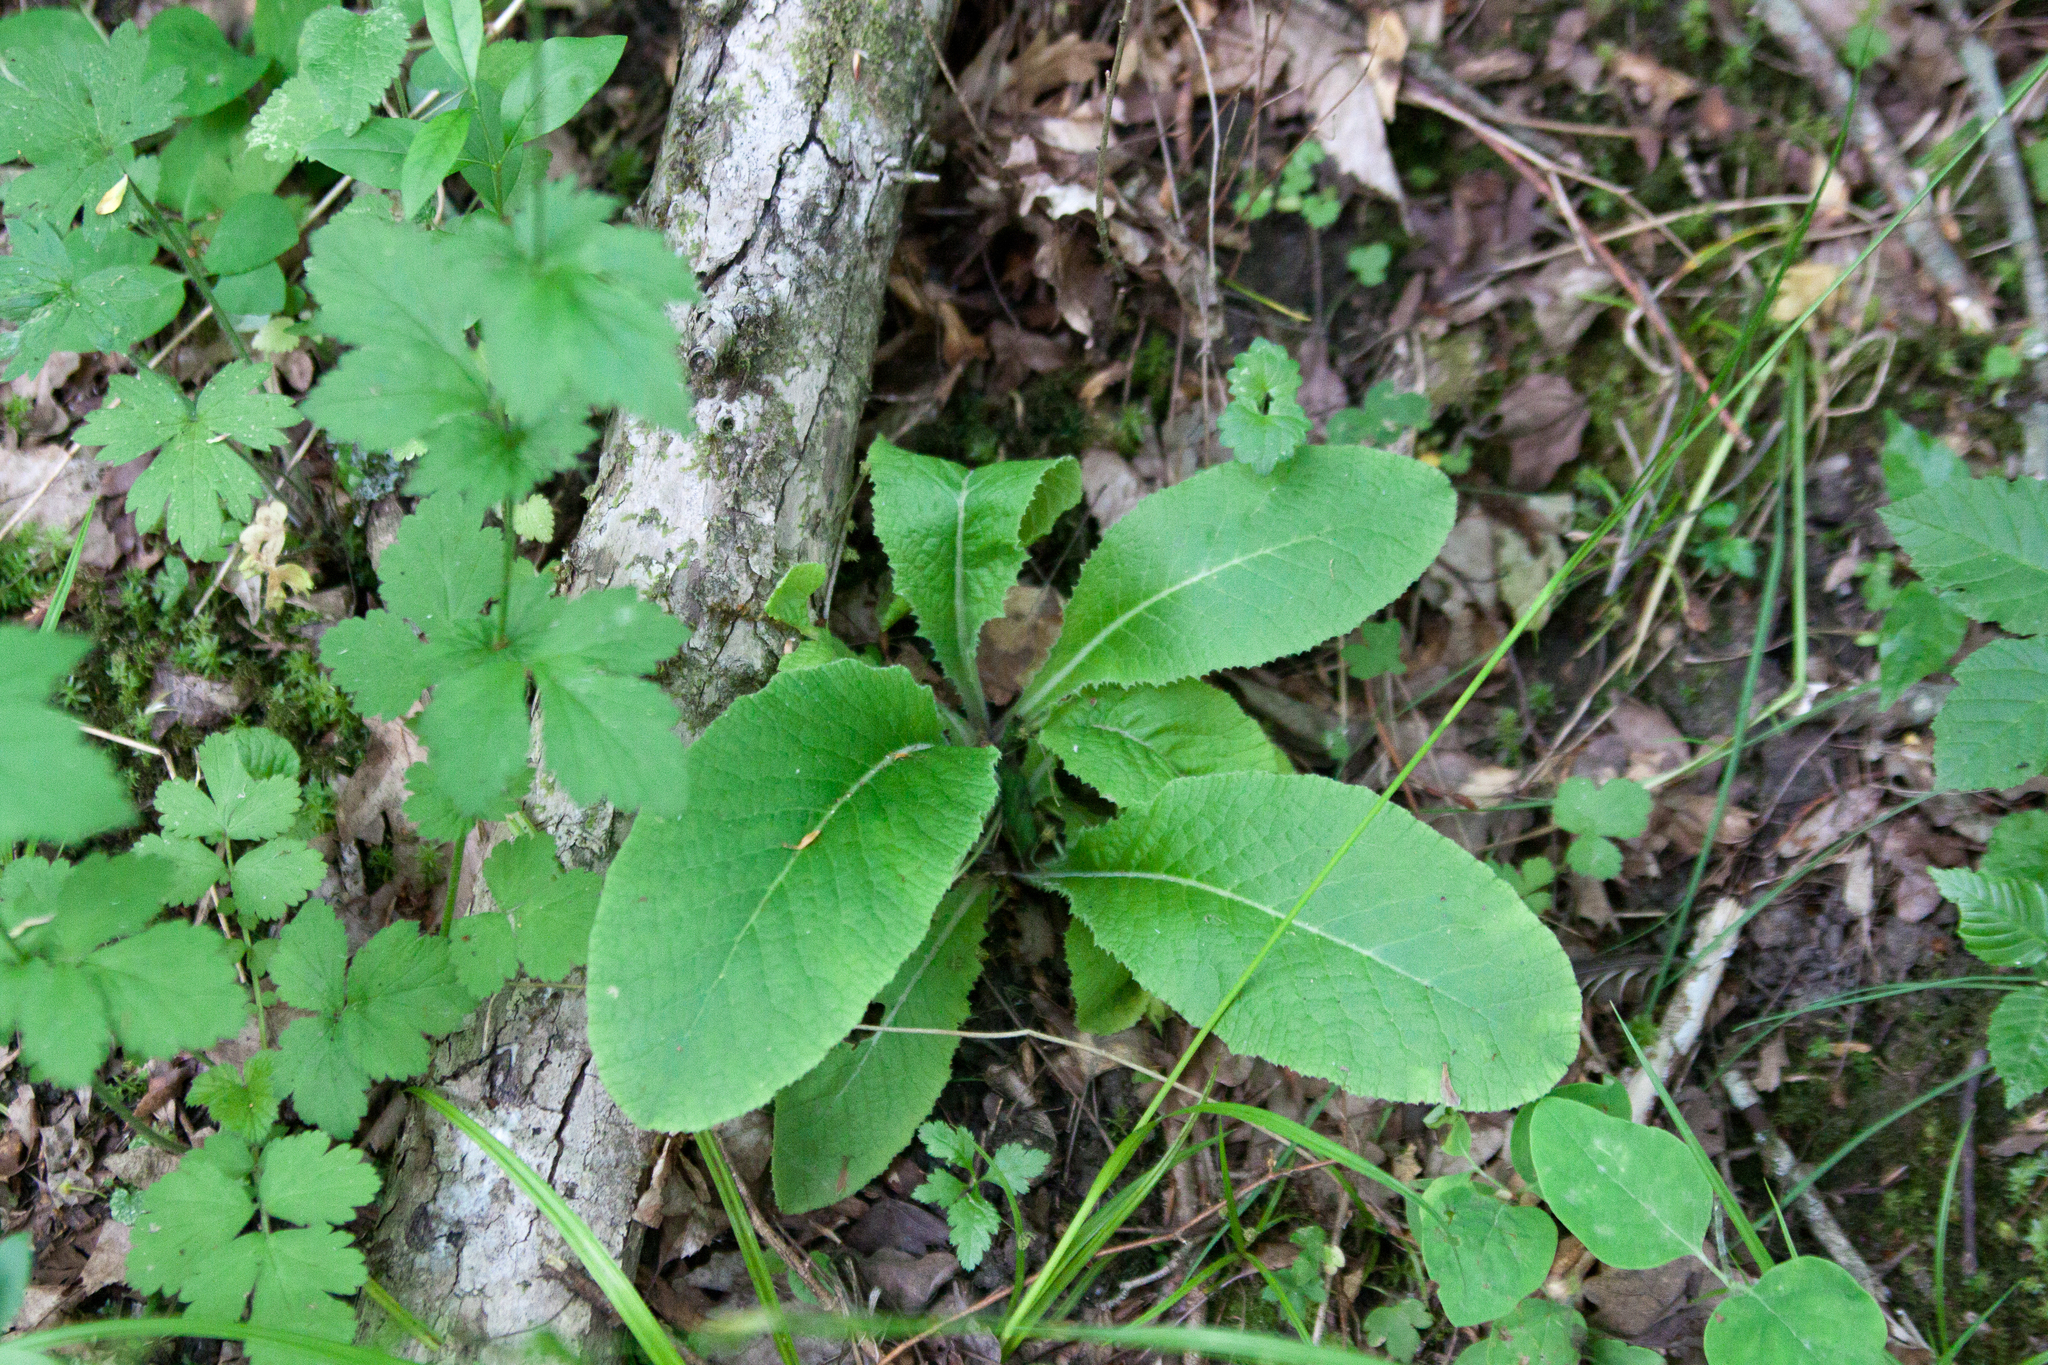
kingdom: Plantae
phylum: Tracheophyta
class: Magnoliopsida
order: Ericales
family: Primulaceae
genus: Primula
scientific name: Primula vulgaris
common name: Primrose
